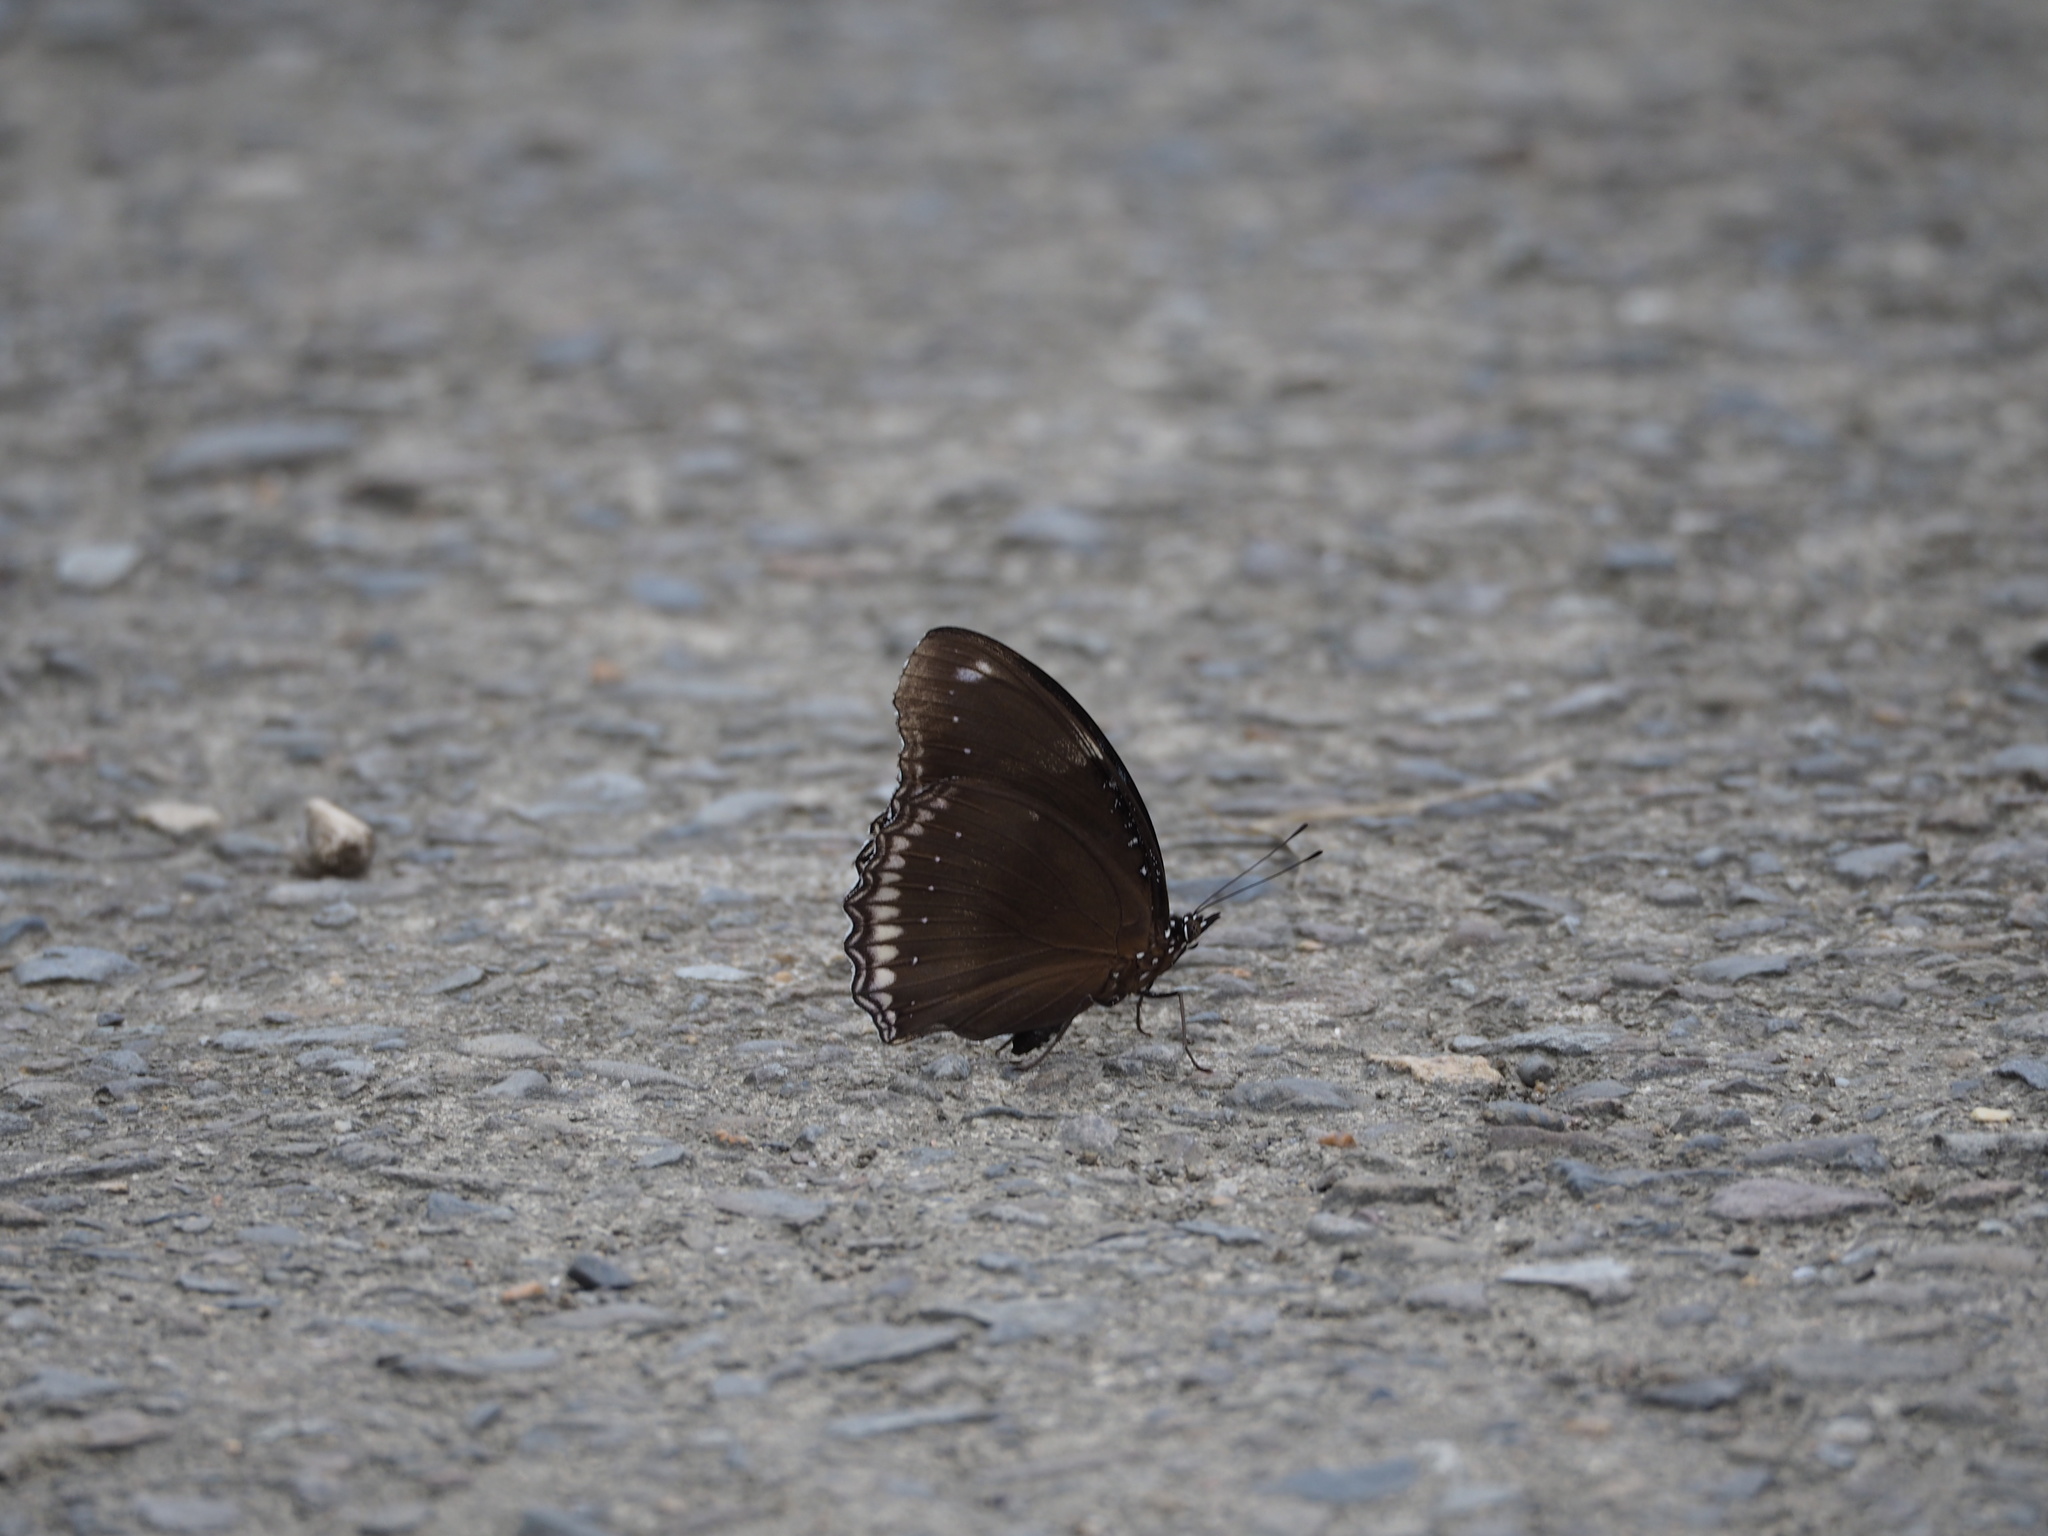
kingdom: Animalia
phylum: Arthropoda
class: Insecta
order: Lepidoptera
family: Nymphalidae
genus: Hypolimnas
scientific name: Hypolimnas bolina
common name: Great eggfly
